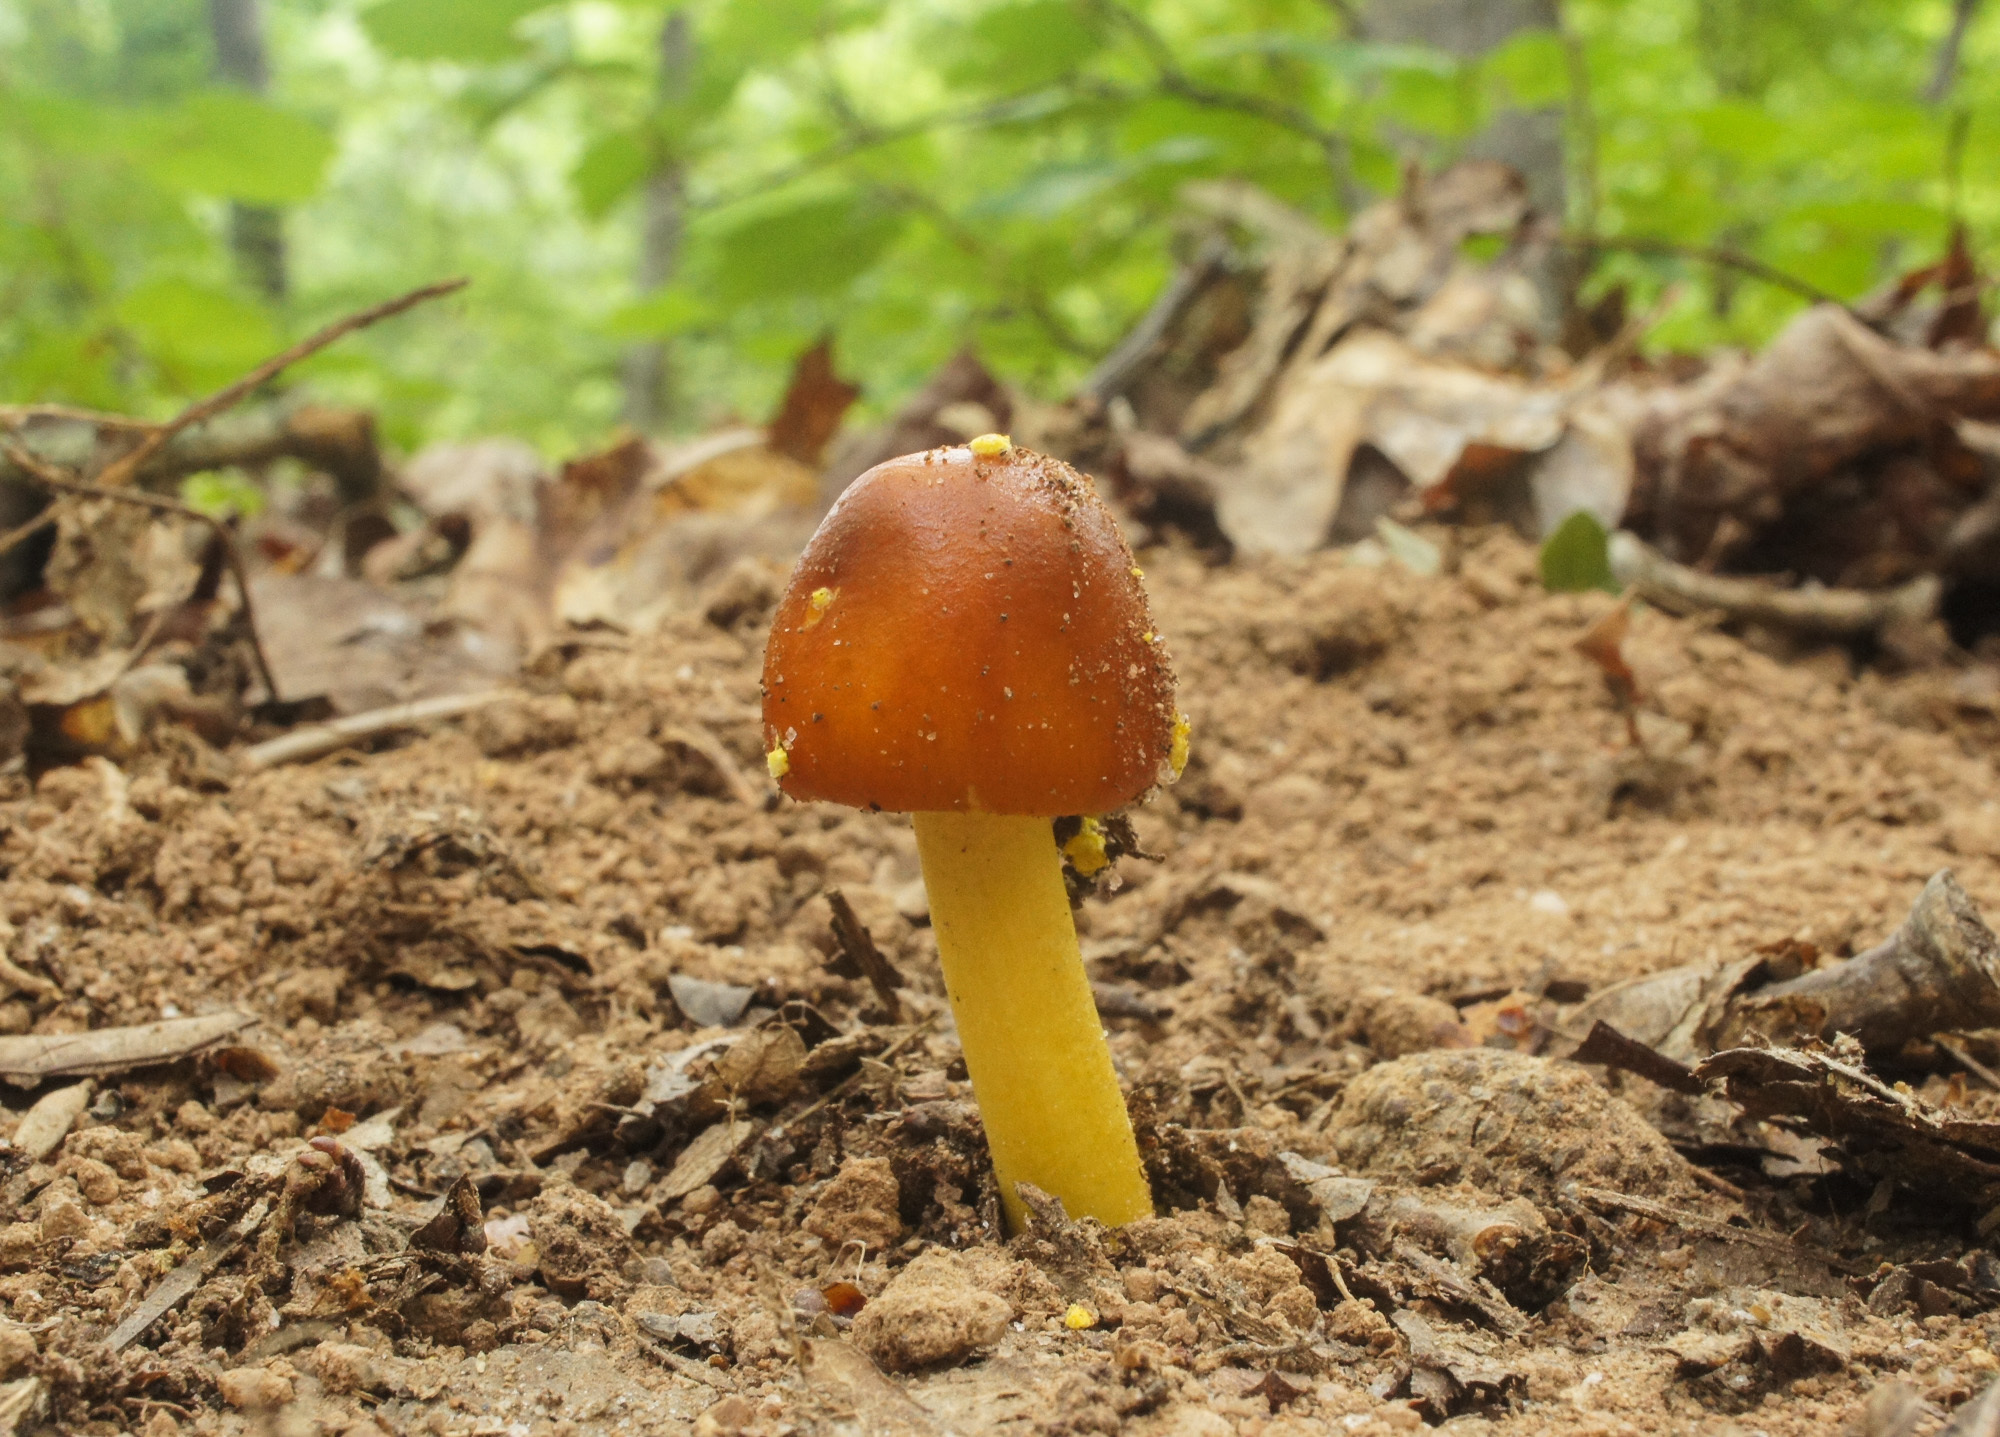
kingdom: Fungi
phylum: Basidiomycota
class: Agaricomycetes
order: Agaricales
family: Amanitaceae
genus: Amanita
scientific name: Amanita flavoconia
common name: Yellow patches
